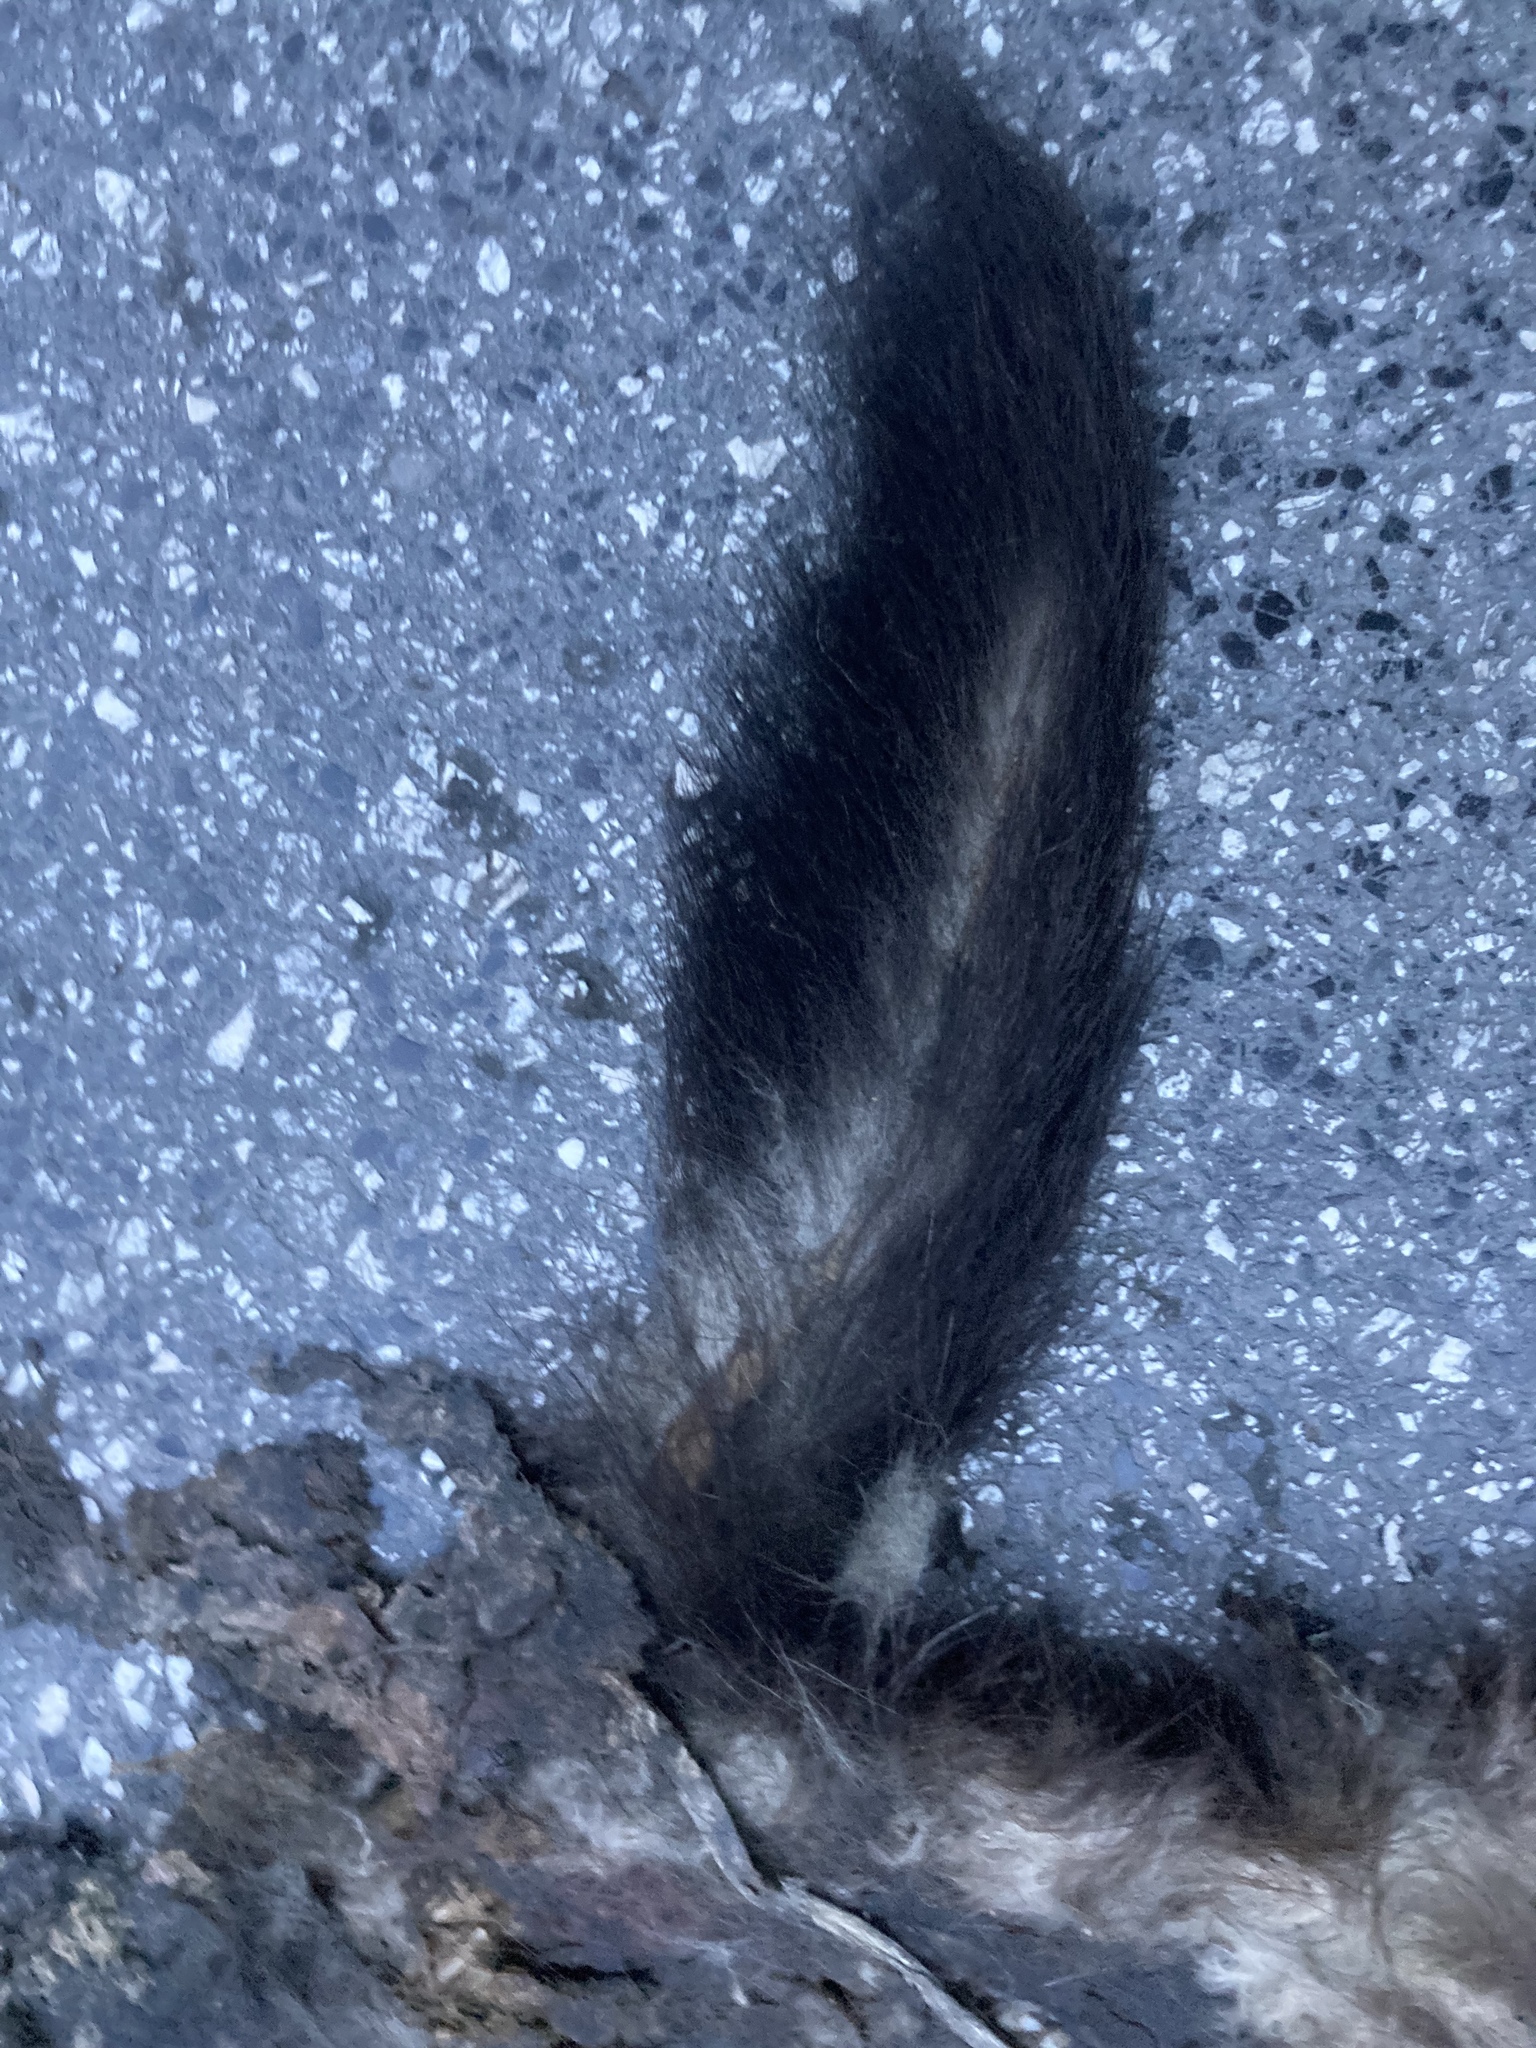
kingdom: Animalia
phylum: Chordata
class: Mammalia
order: Carnivora
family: Mustelidae
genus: Martes
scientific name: Martes foina
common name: Beech marten
